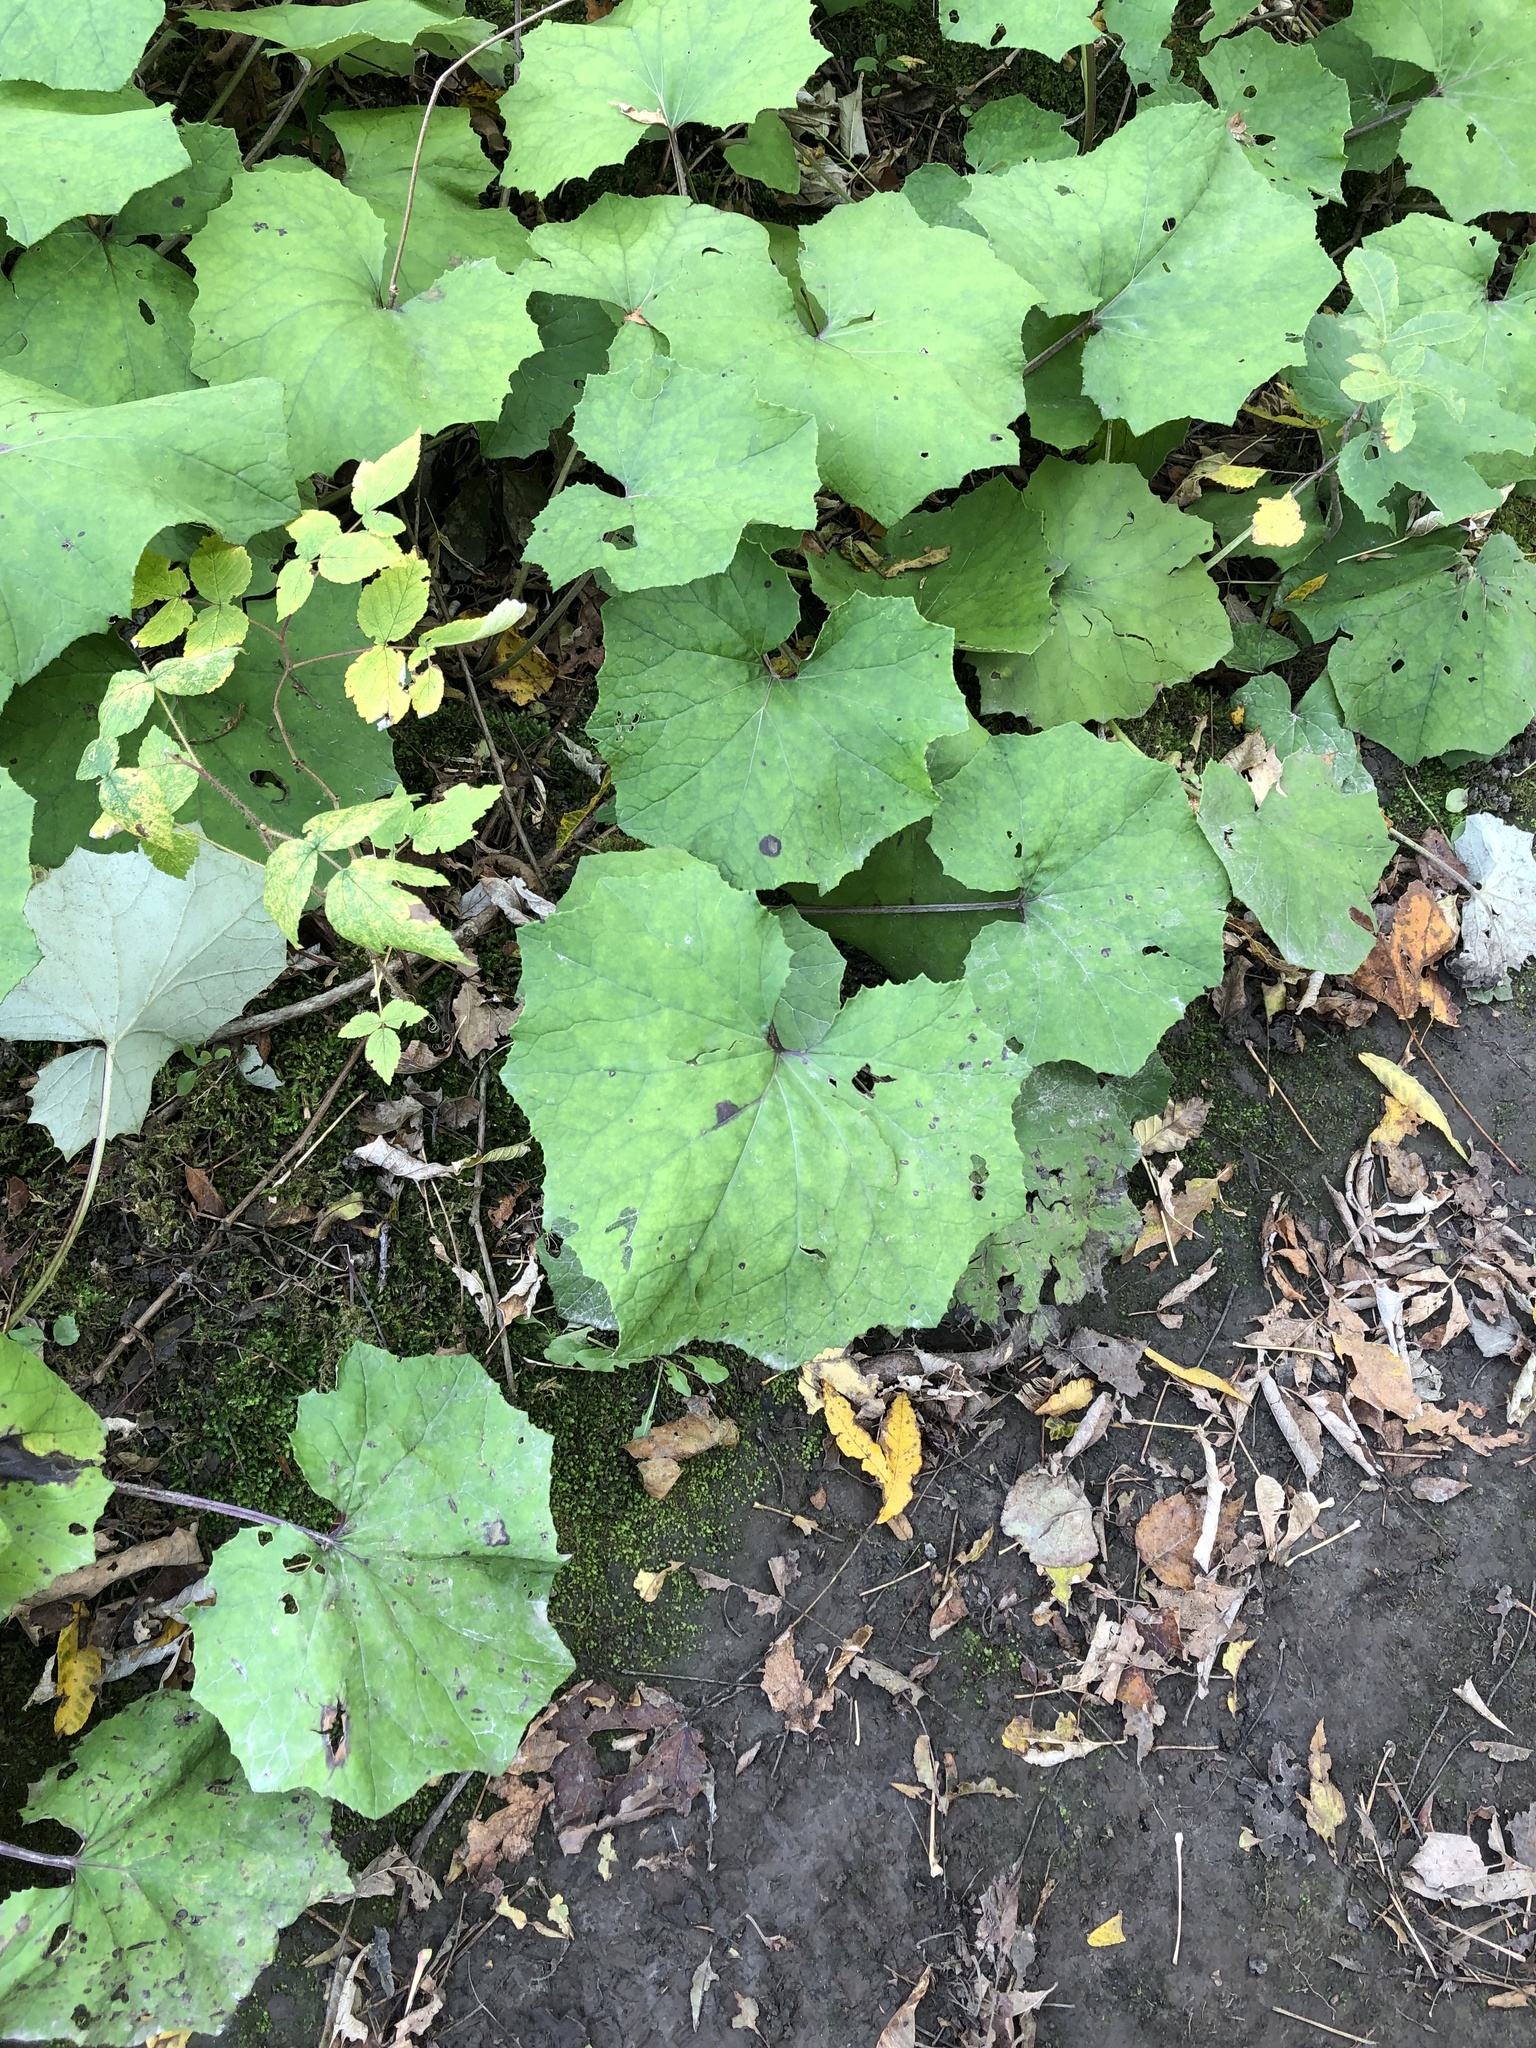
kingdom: Plantae
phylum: Tracheophyta
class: Magnoliopsida
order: Asterales
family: Asteraceae
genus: Tussilago
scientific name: Tussilago farfara
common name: Coltsfoot
